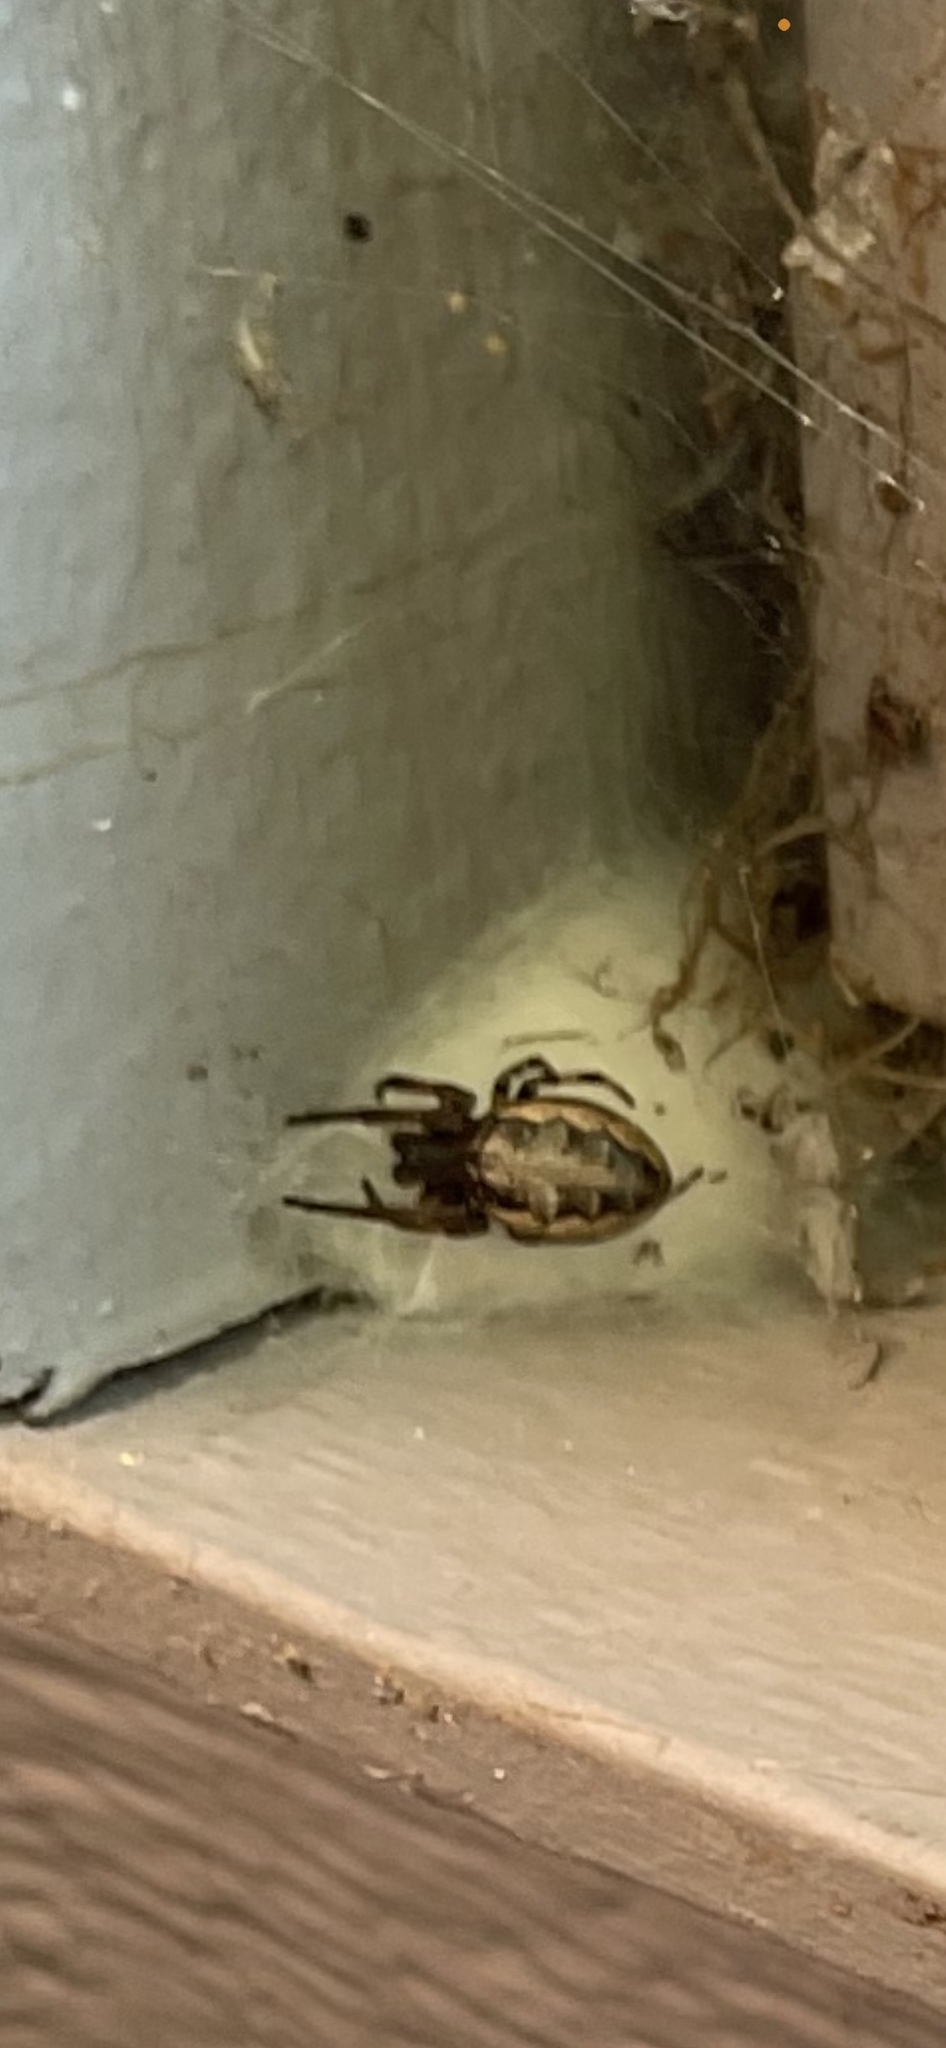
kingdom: Animalia
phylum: Arthropoda
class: Arachnida
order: Araneae
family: Araneidae
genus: Larinioides
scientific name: Larinioides cornutus
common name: Furrow orbweaver
